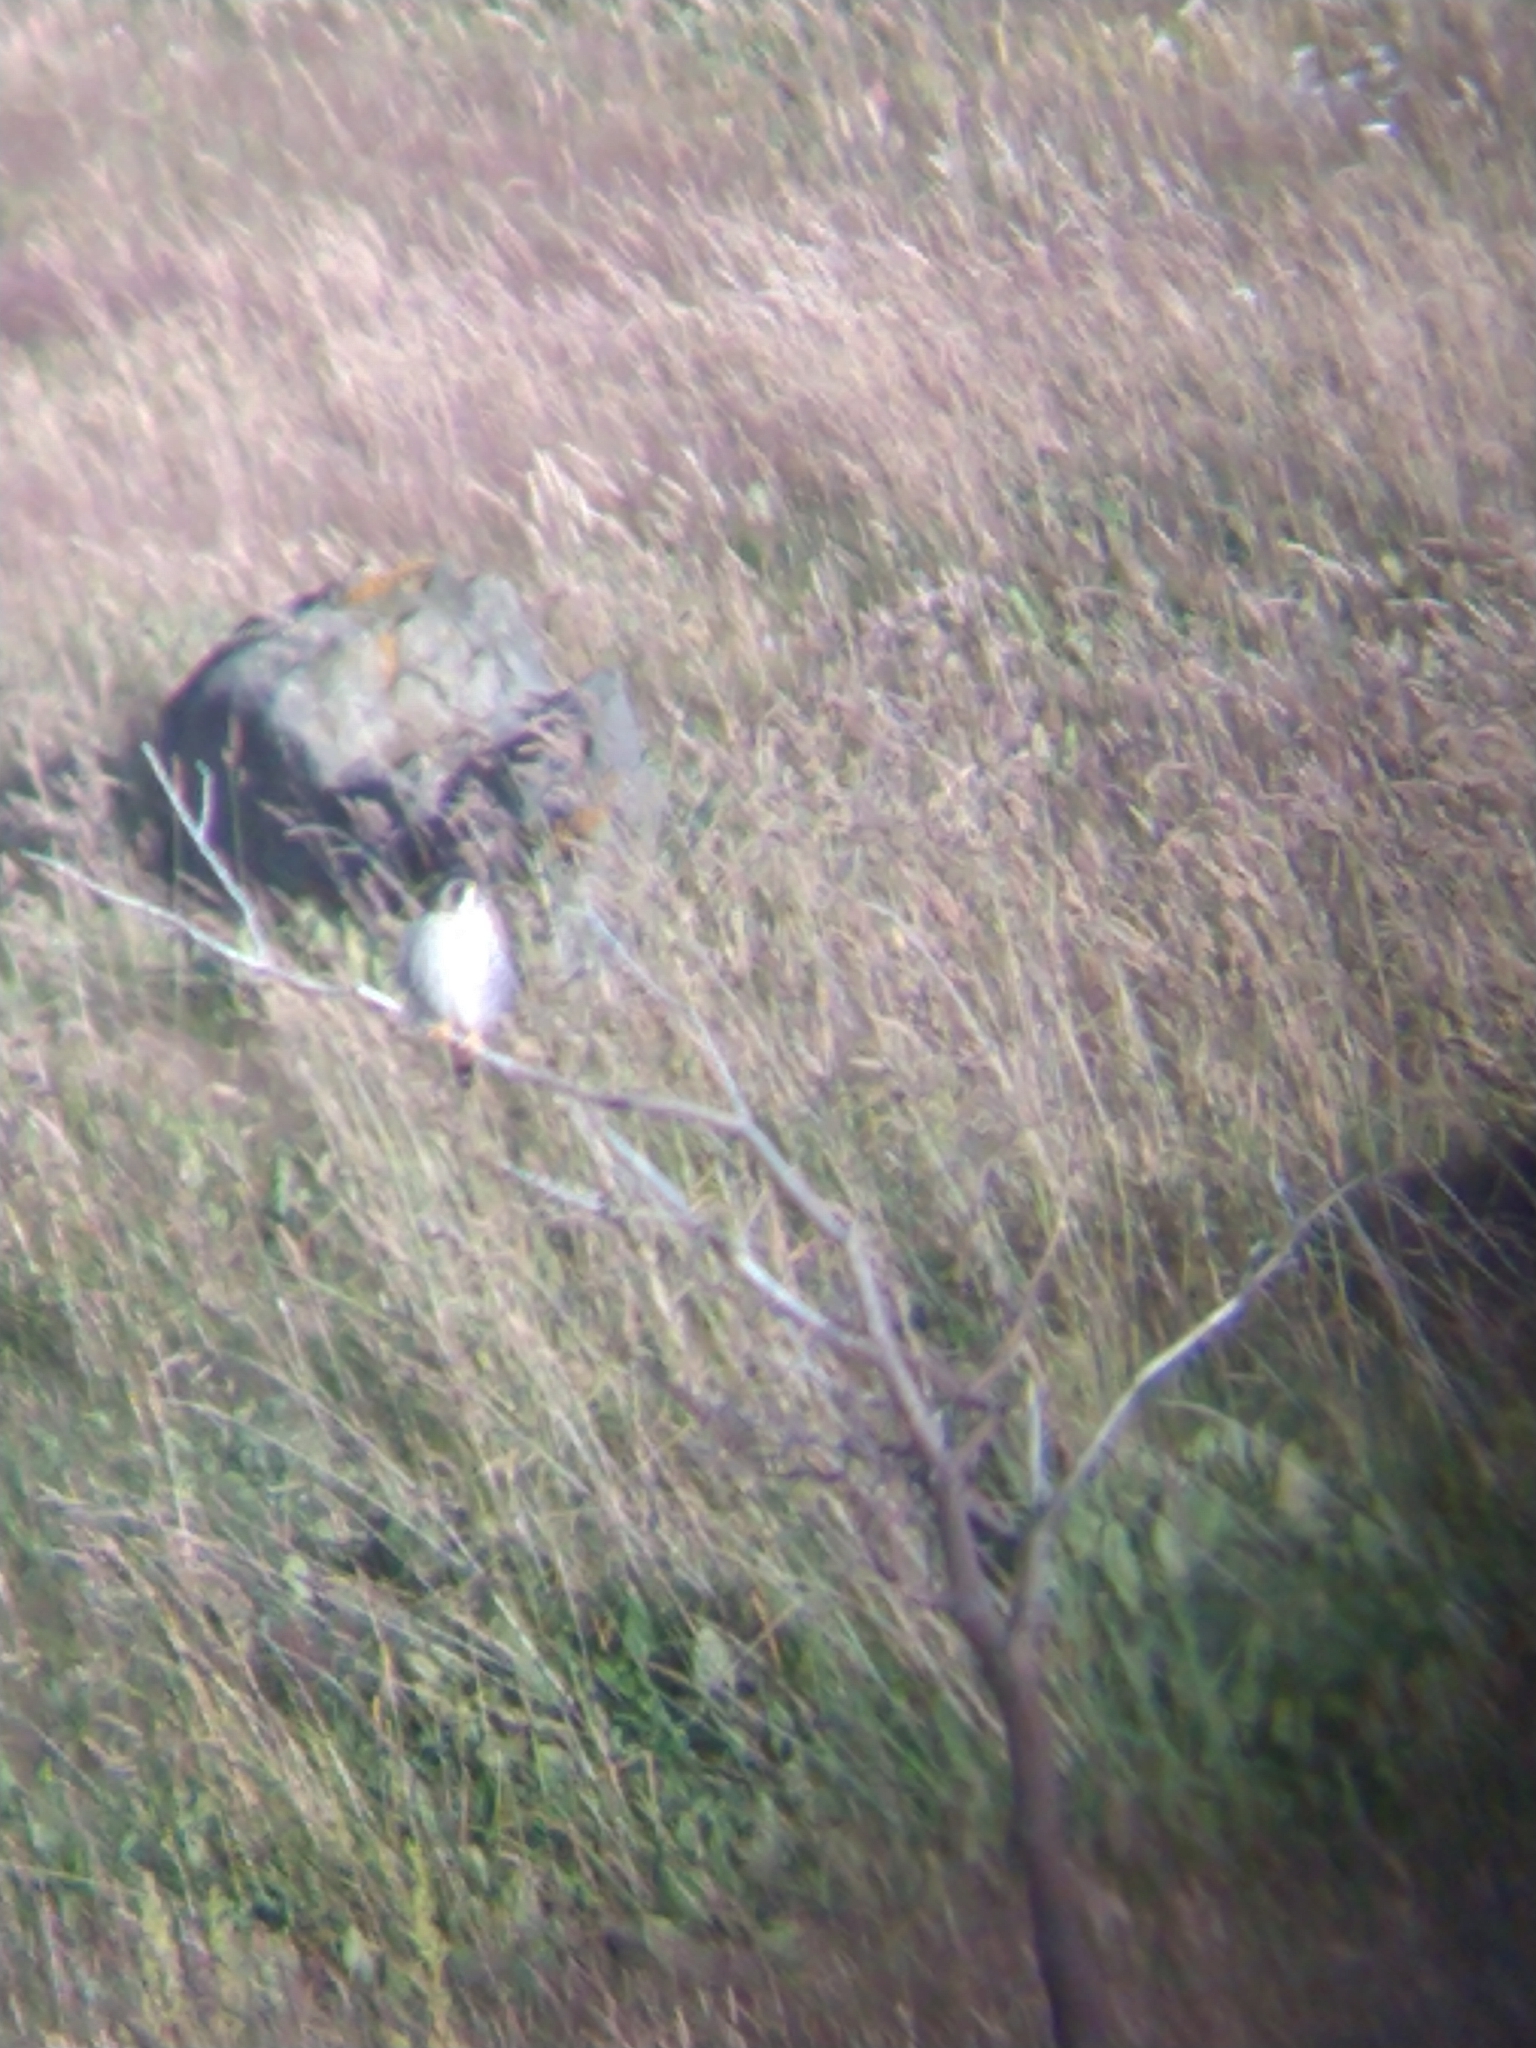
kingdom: Animalia
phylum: Chordata
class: Aves
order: Falconiformes
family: Falconidae
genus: Falco
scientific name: Falco sparverius
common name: American kestrel
